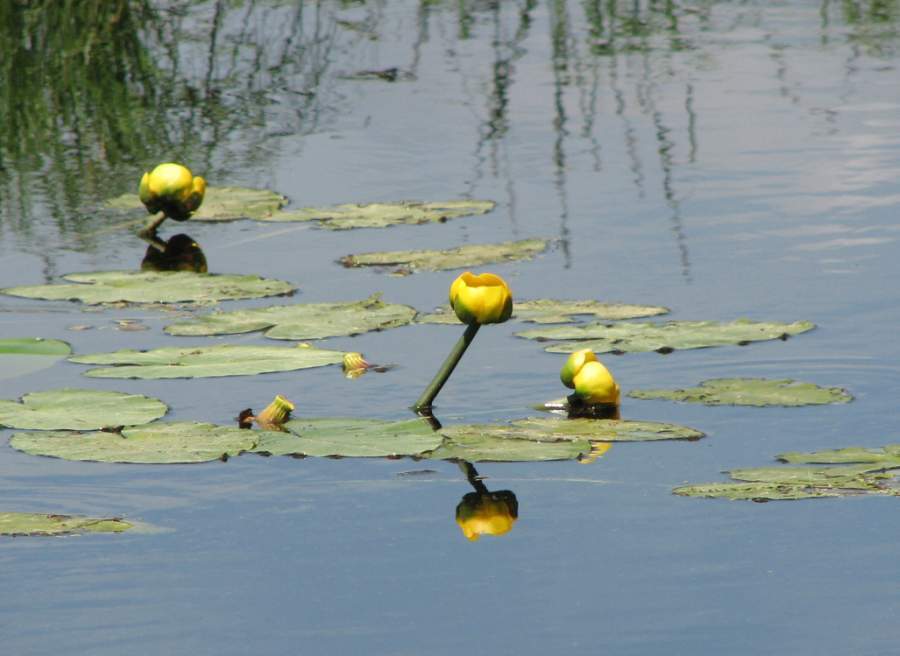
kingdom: Plantae
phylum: Tracheophyta
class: Magnoliopsida
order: Nymphaeales
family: Nymphaeaceae
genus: Nuphar
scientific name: Nuphar variegata
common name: Beaver-root
